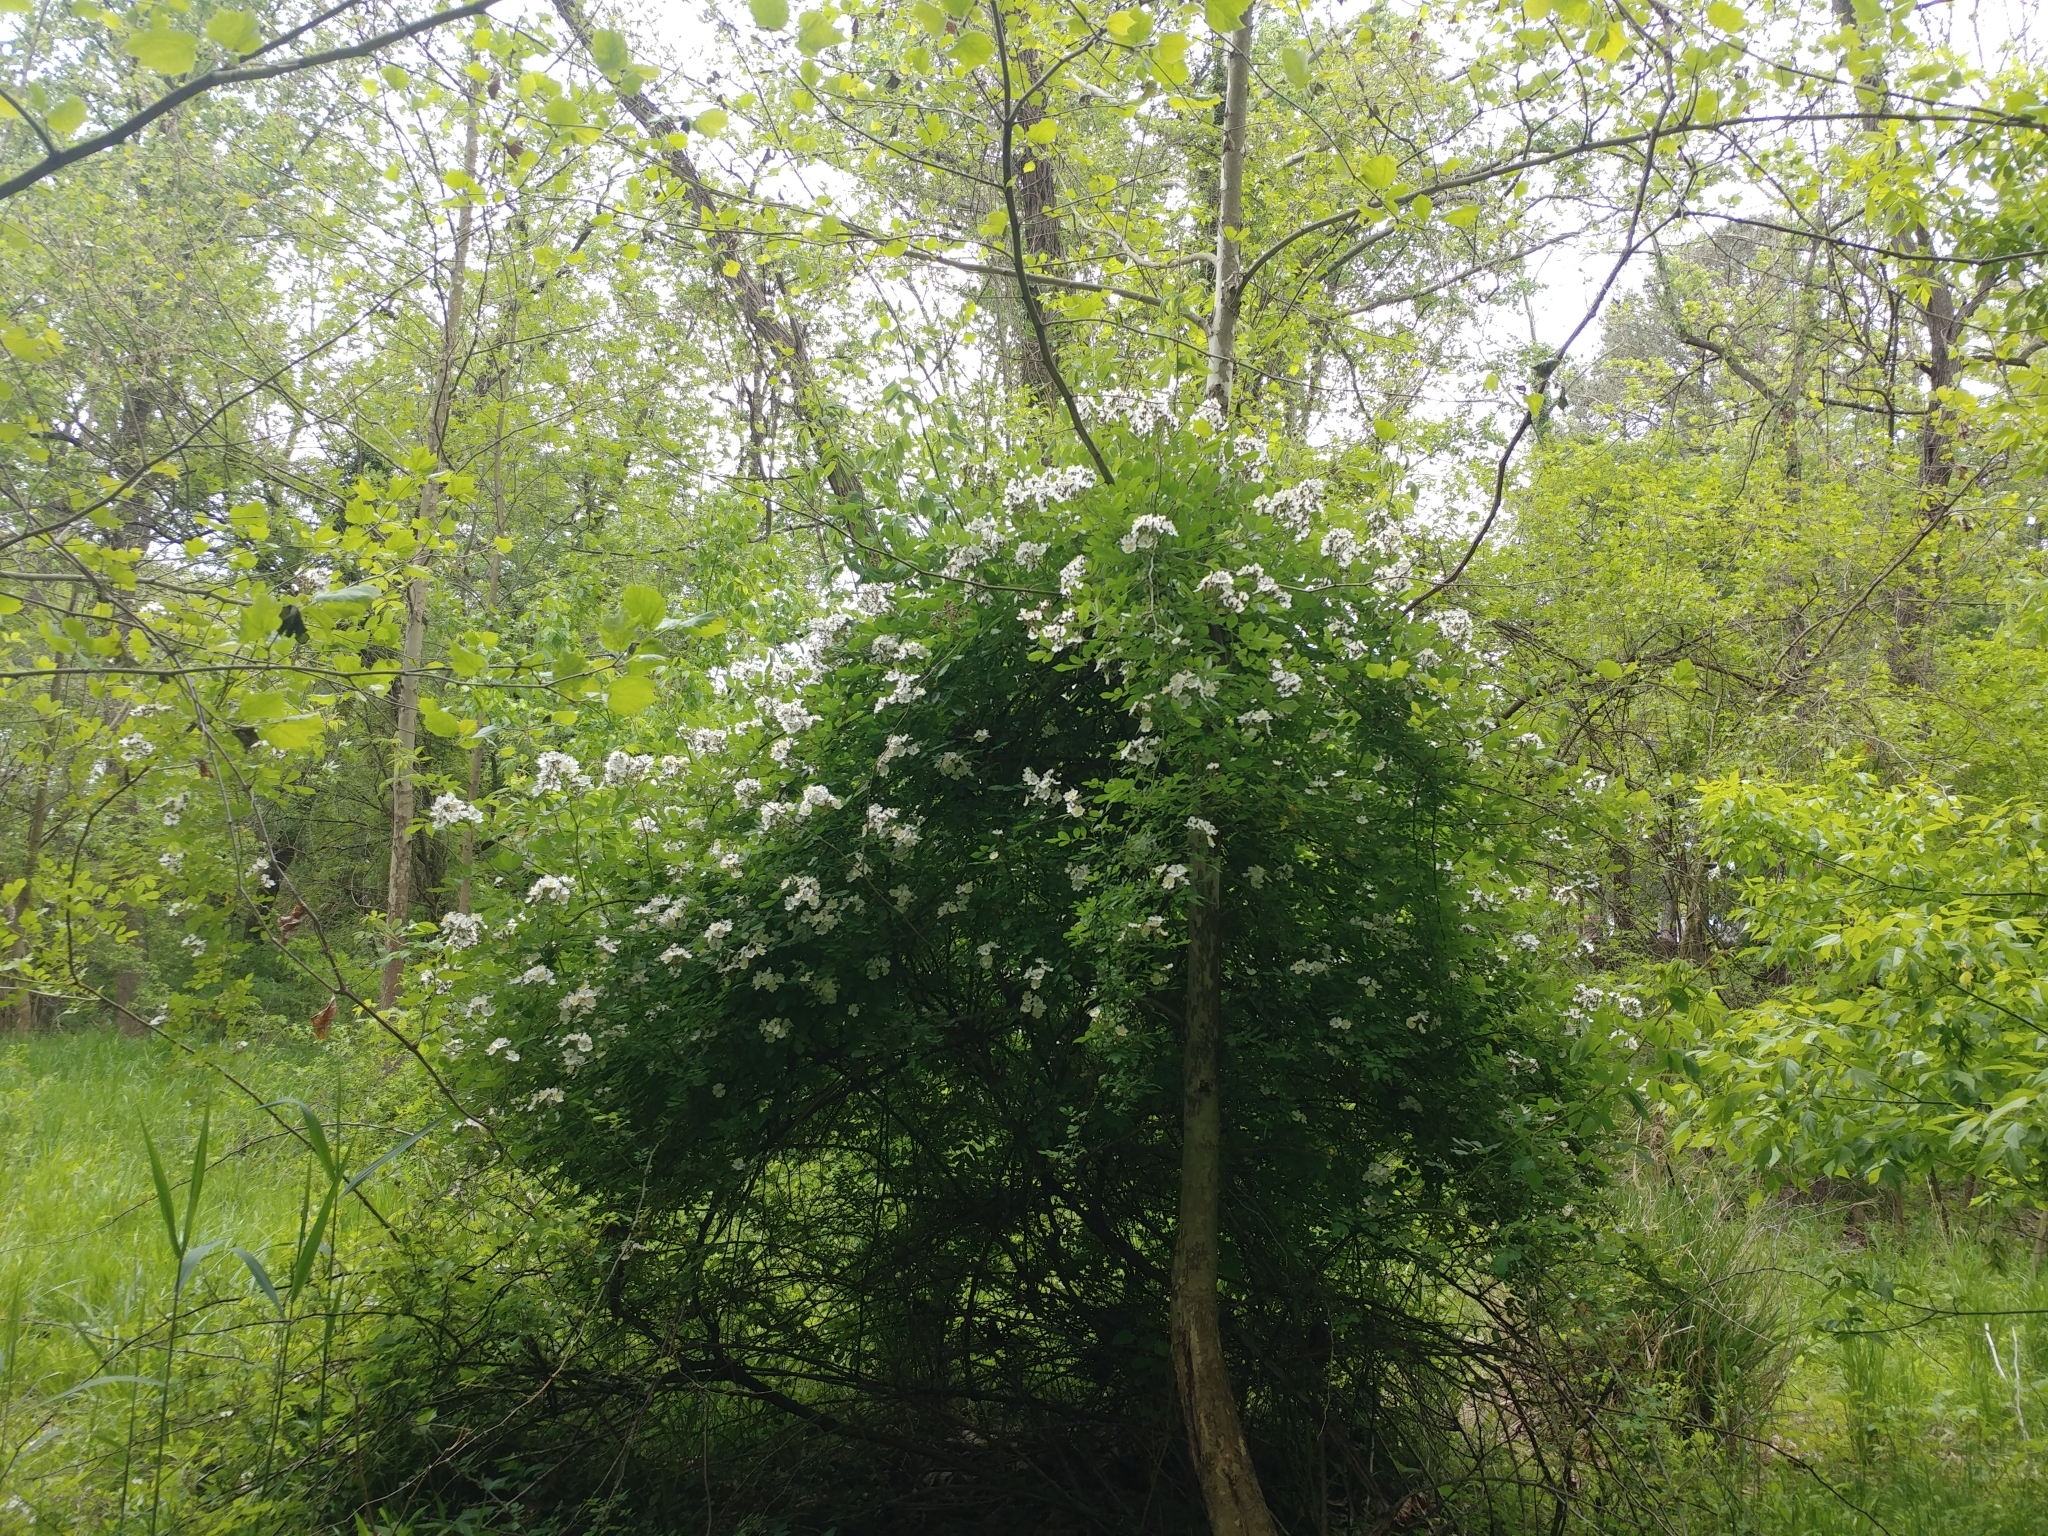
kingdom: Plantae
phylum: Tracheophyta
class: Magnoliopsida
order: Rosales
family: Rosaceae
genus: Rosa
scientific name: Rosa multiflora
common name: Multiflora rose
